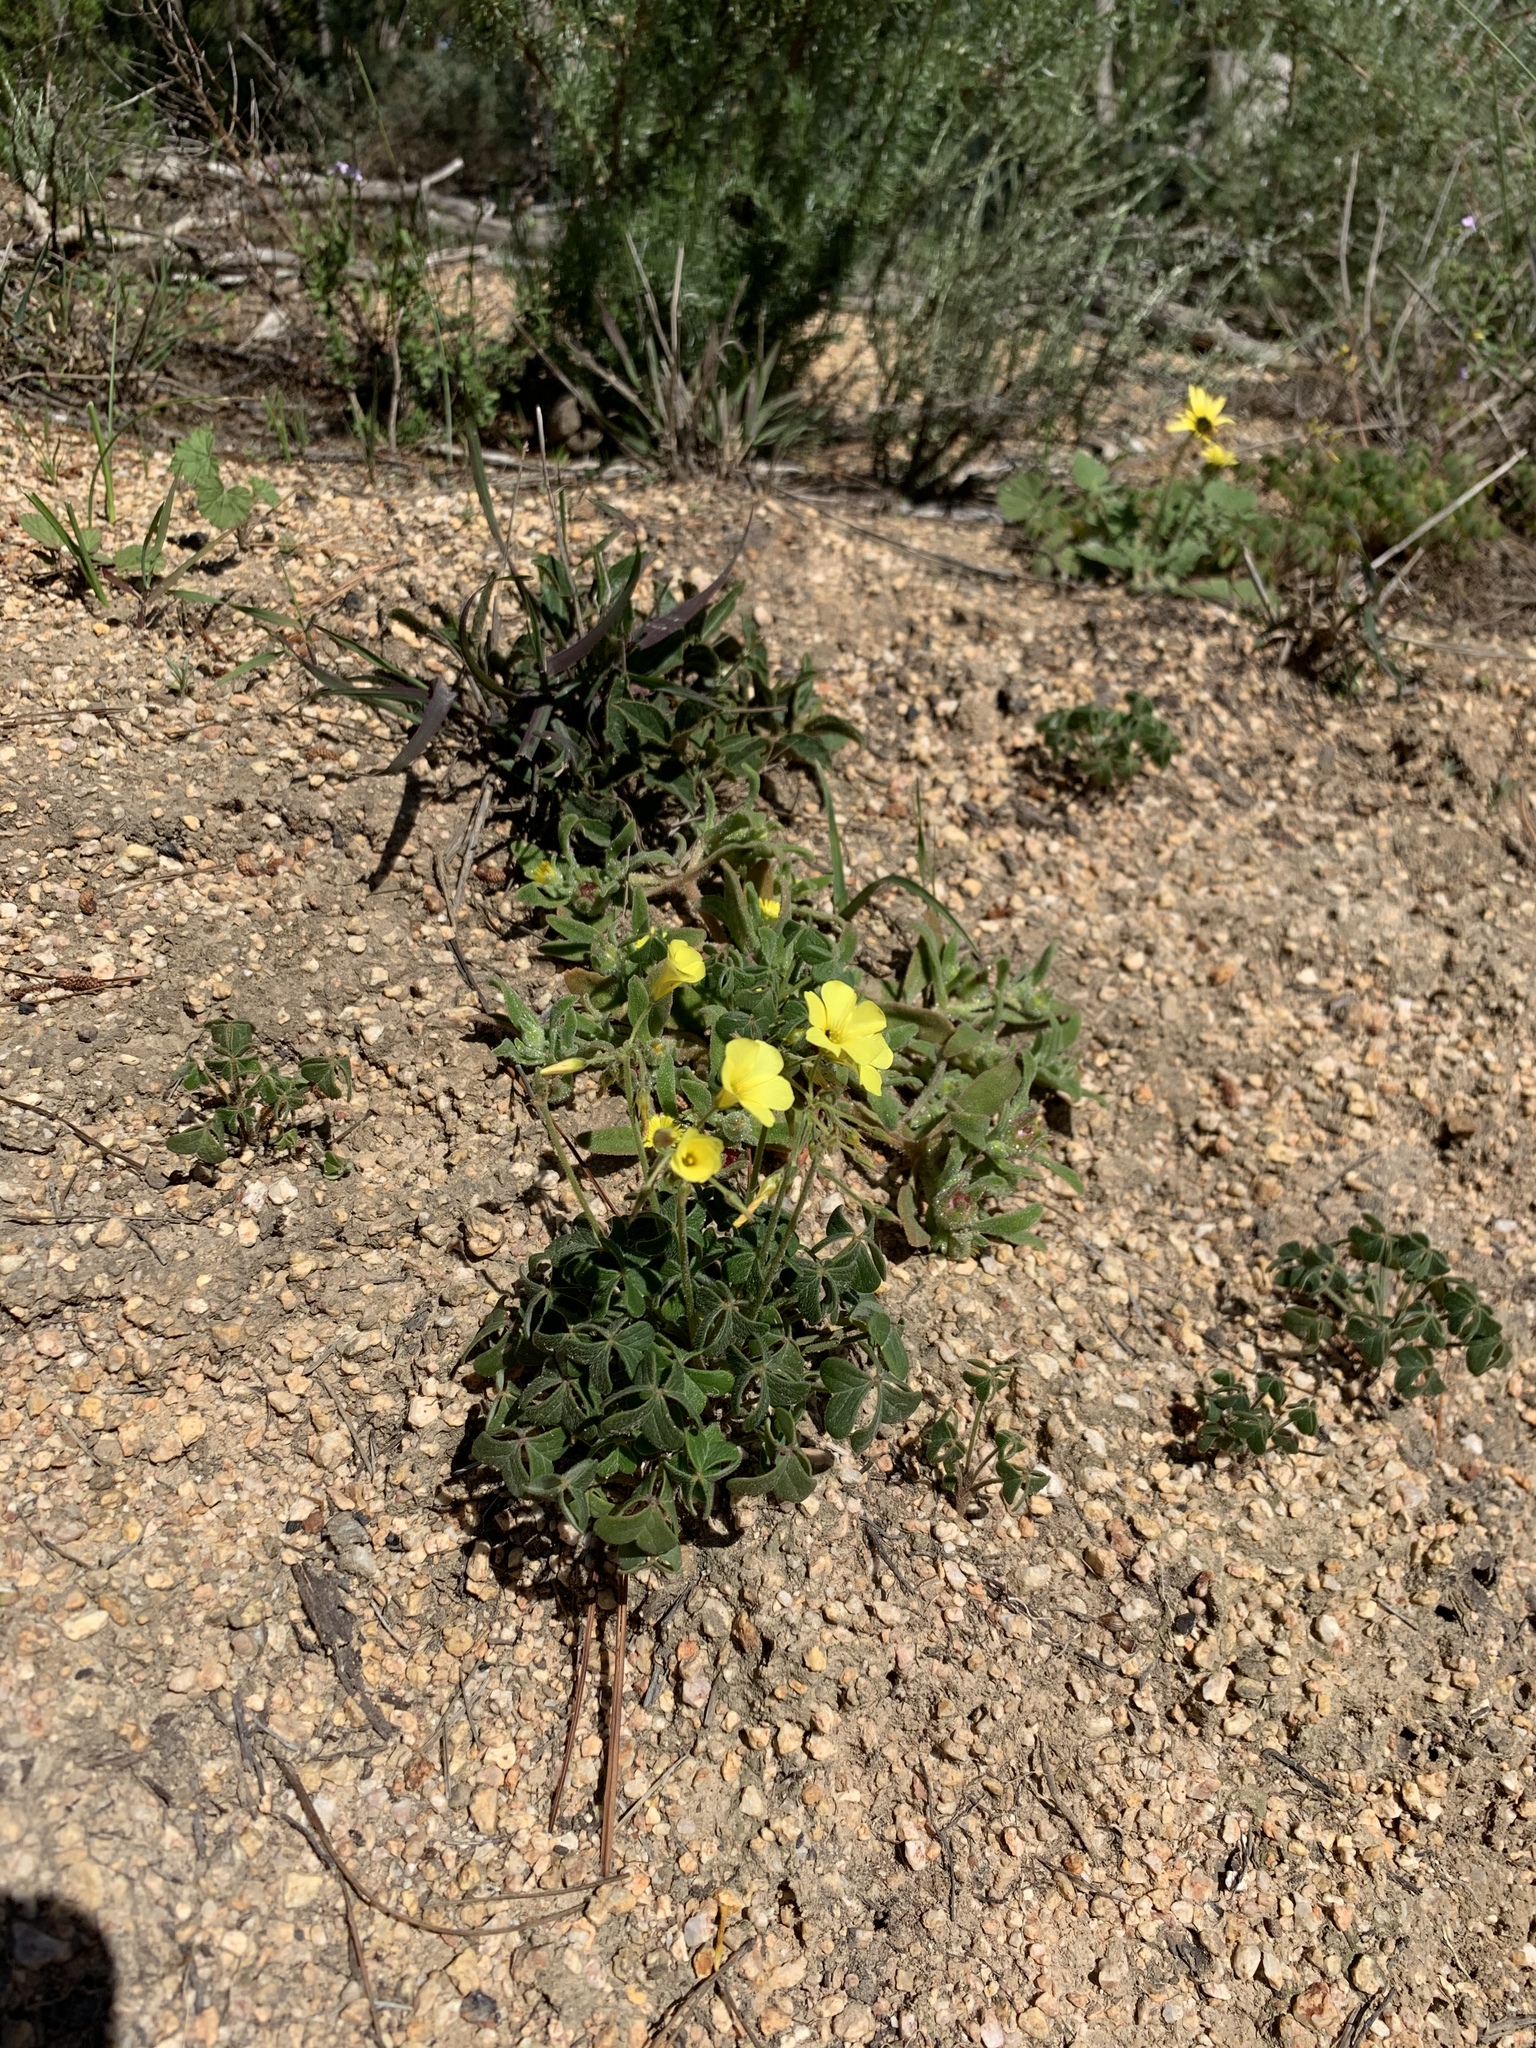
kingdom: Plantae
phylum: Tracheophyta
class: Magnoliopsida
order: Oxalidales
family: Oxalidaceae
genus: Oxalis
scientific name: Oxalis pes-caprae
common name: Bermuda-buttercup
